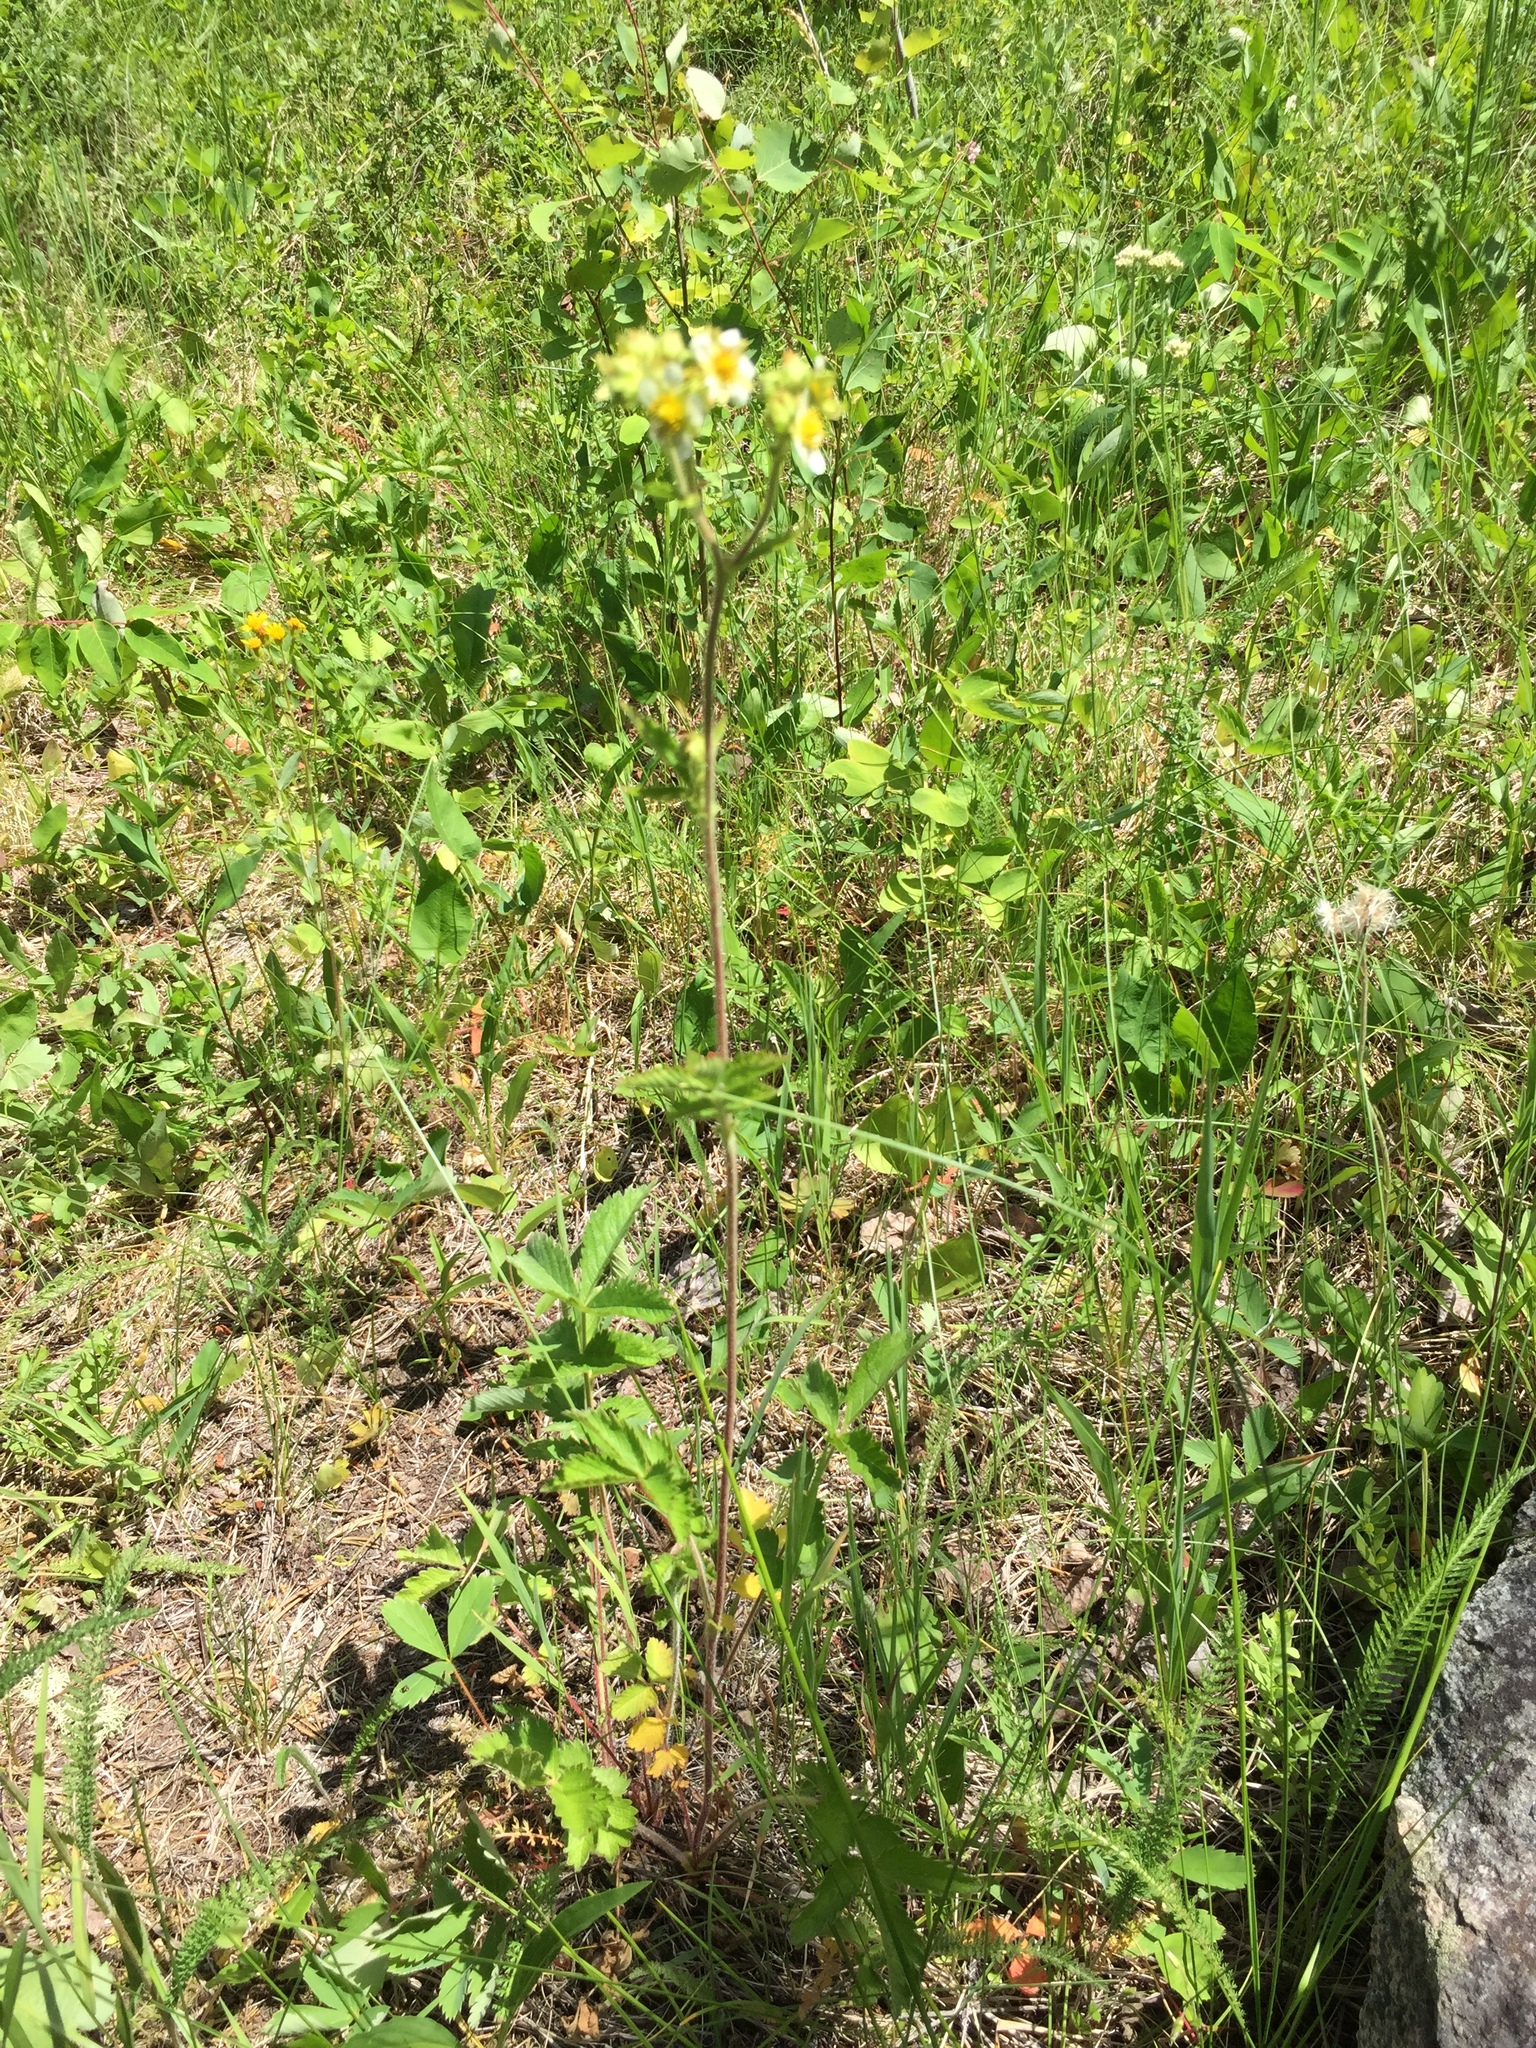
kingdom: Plantae
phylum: Tracheophyta
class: Magnoliopsida
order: Rosales
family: Rosaceae
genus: Drymocallis
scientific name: Drymocallis arguta
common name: Tall cinquefoil
